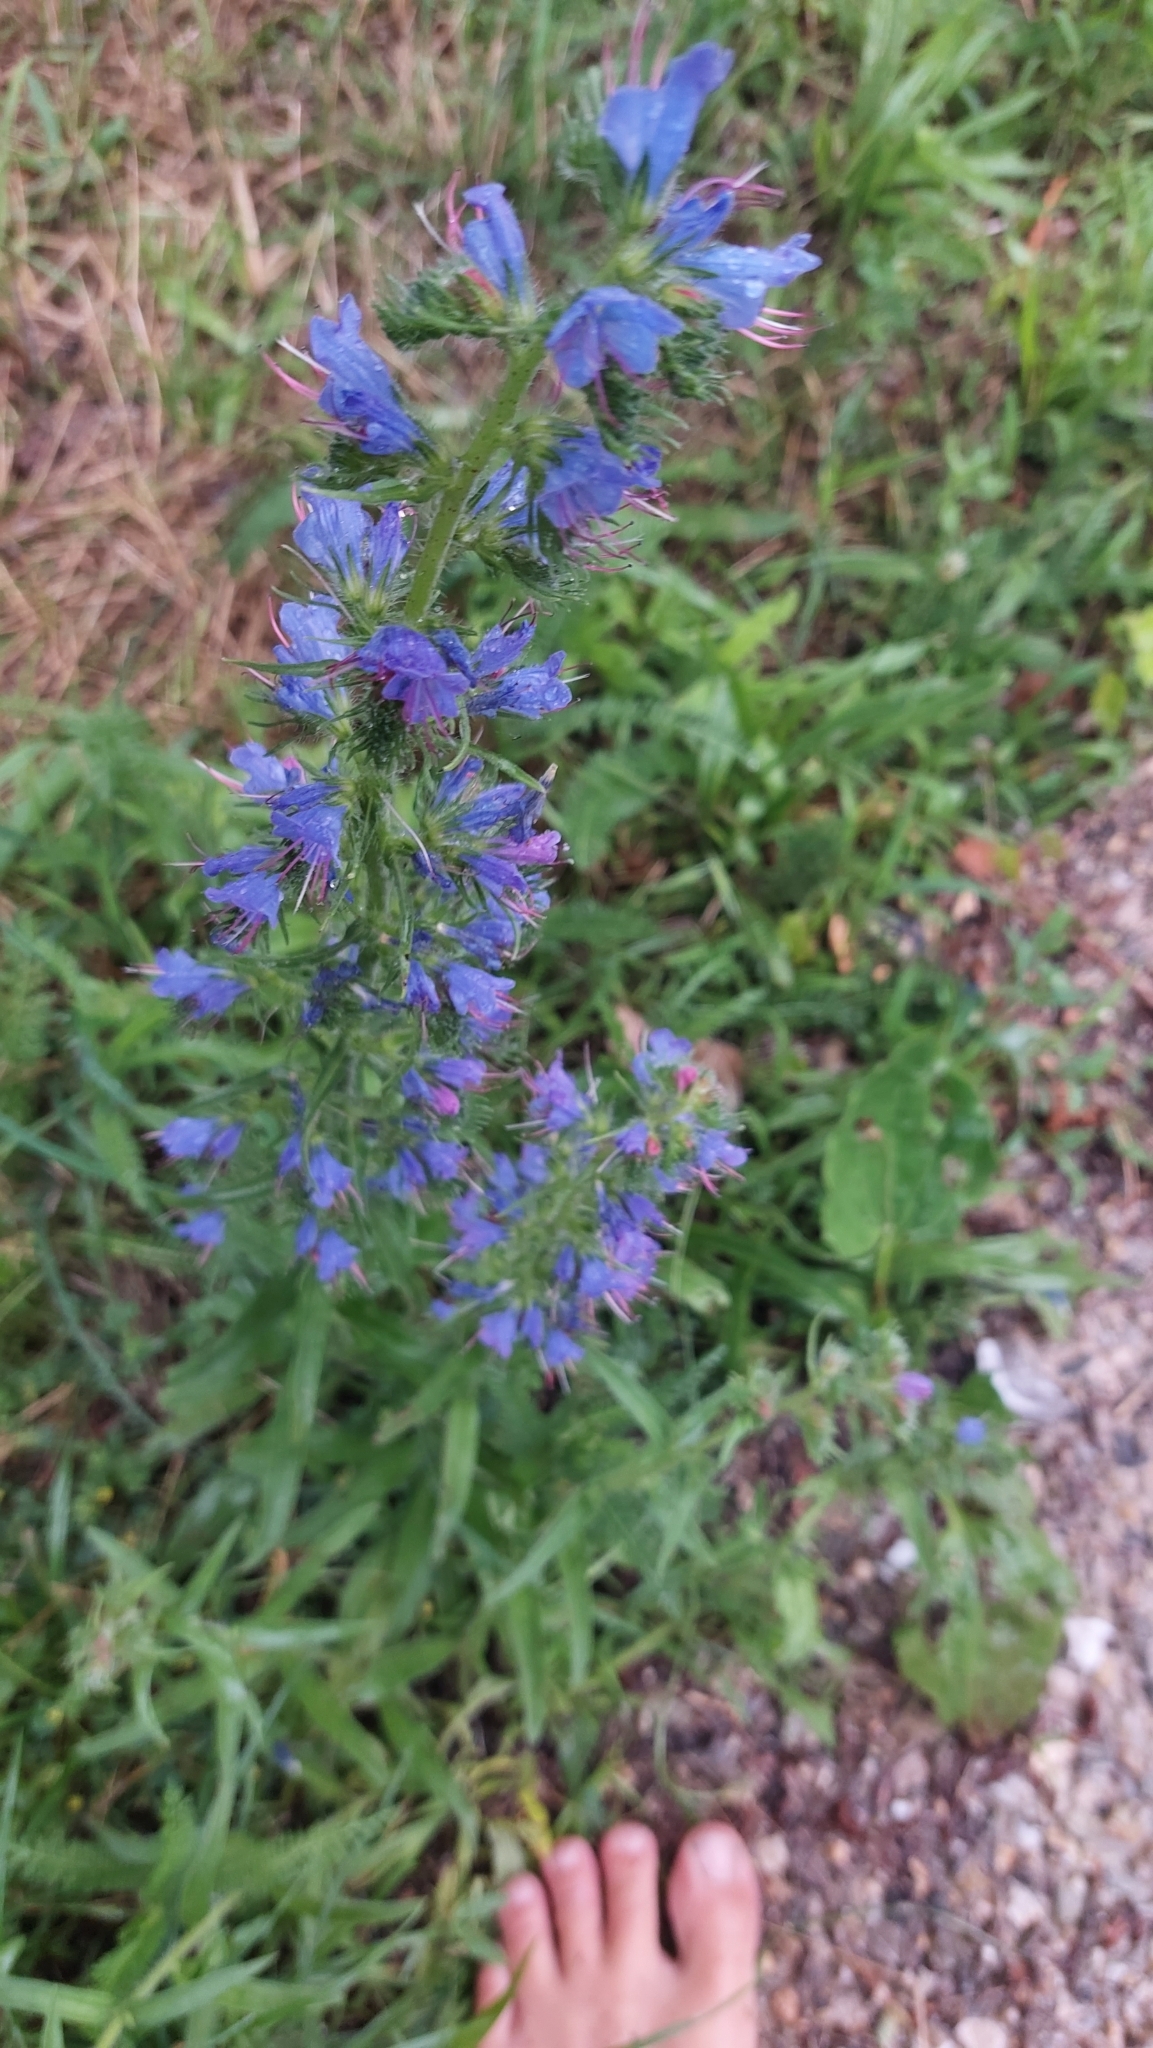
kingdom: Plantae
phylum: Tracheophyta
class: Magnoliopsida
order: Boraginales
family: Boraginaceae
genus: Echium
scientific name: Echium vulgare
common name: Common viper's bugloss
